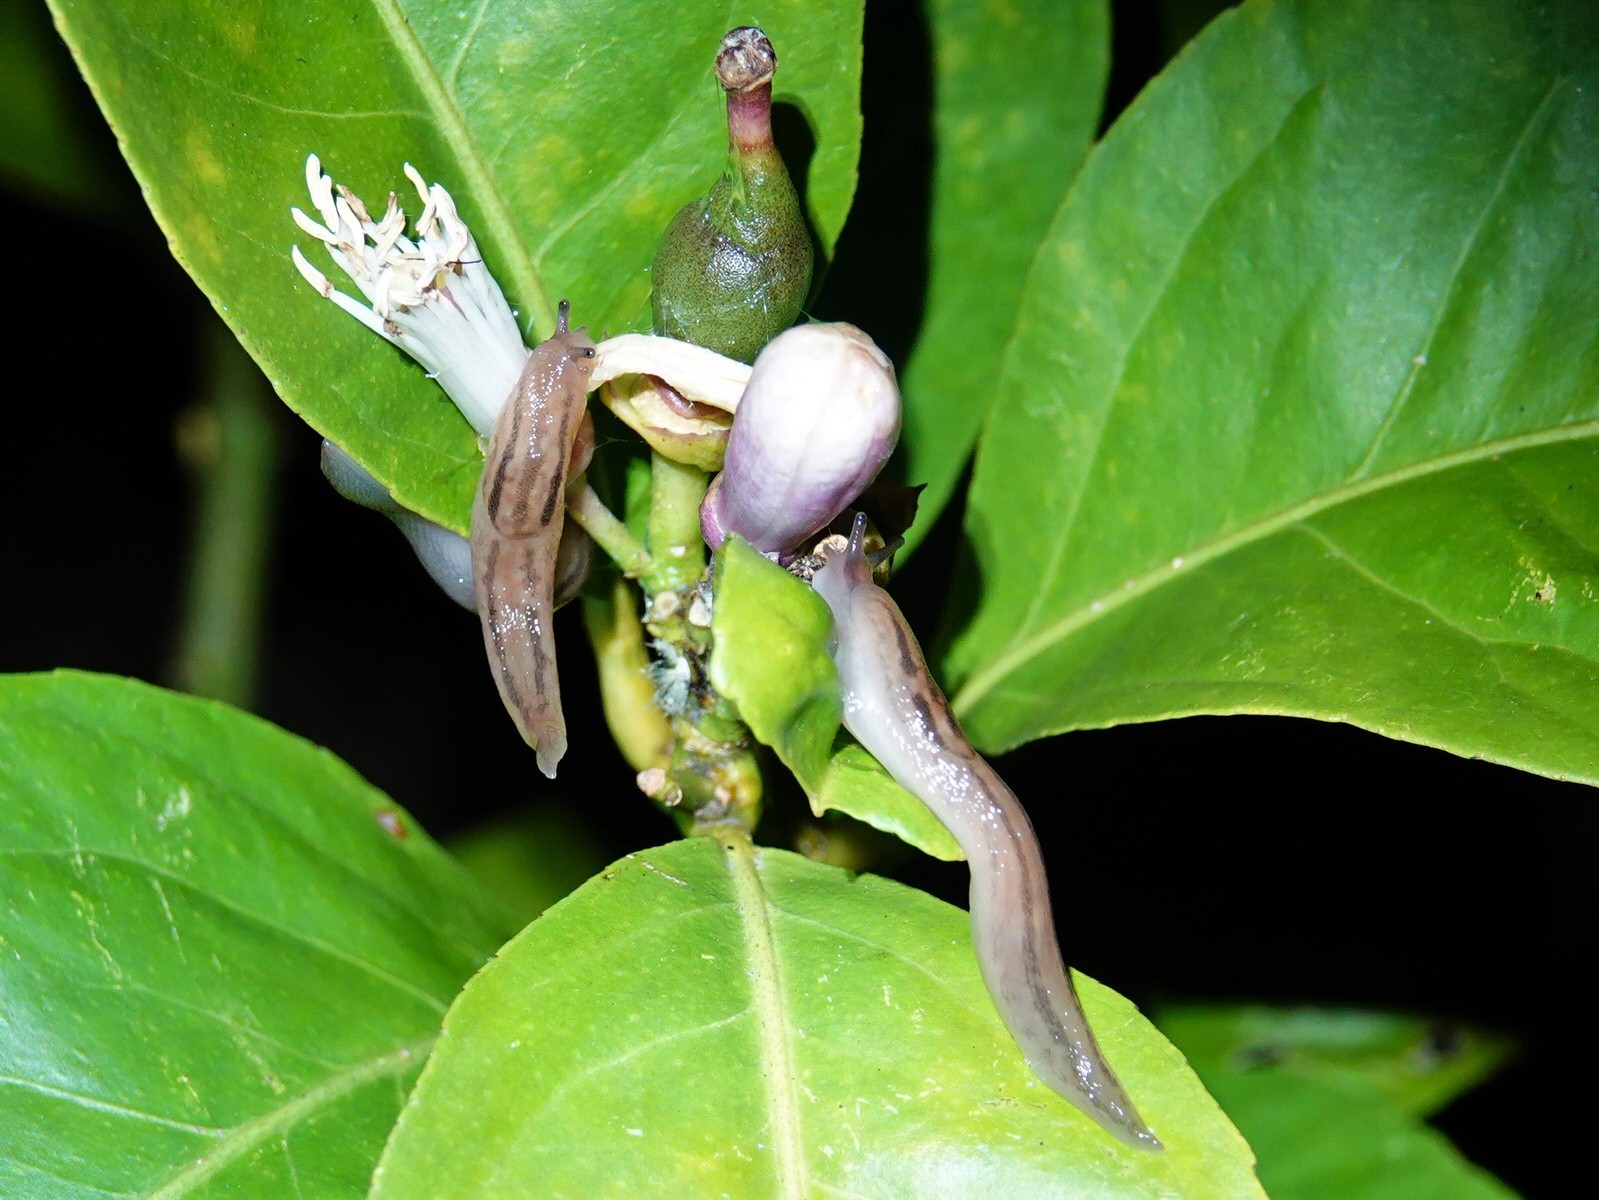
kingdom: Animalia
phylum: Mollusca
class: Gastropoda
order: Stylommatophora
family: Limacidae
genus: Ambigolimax
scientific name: Ambigolimax
